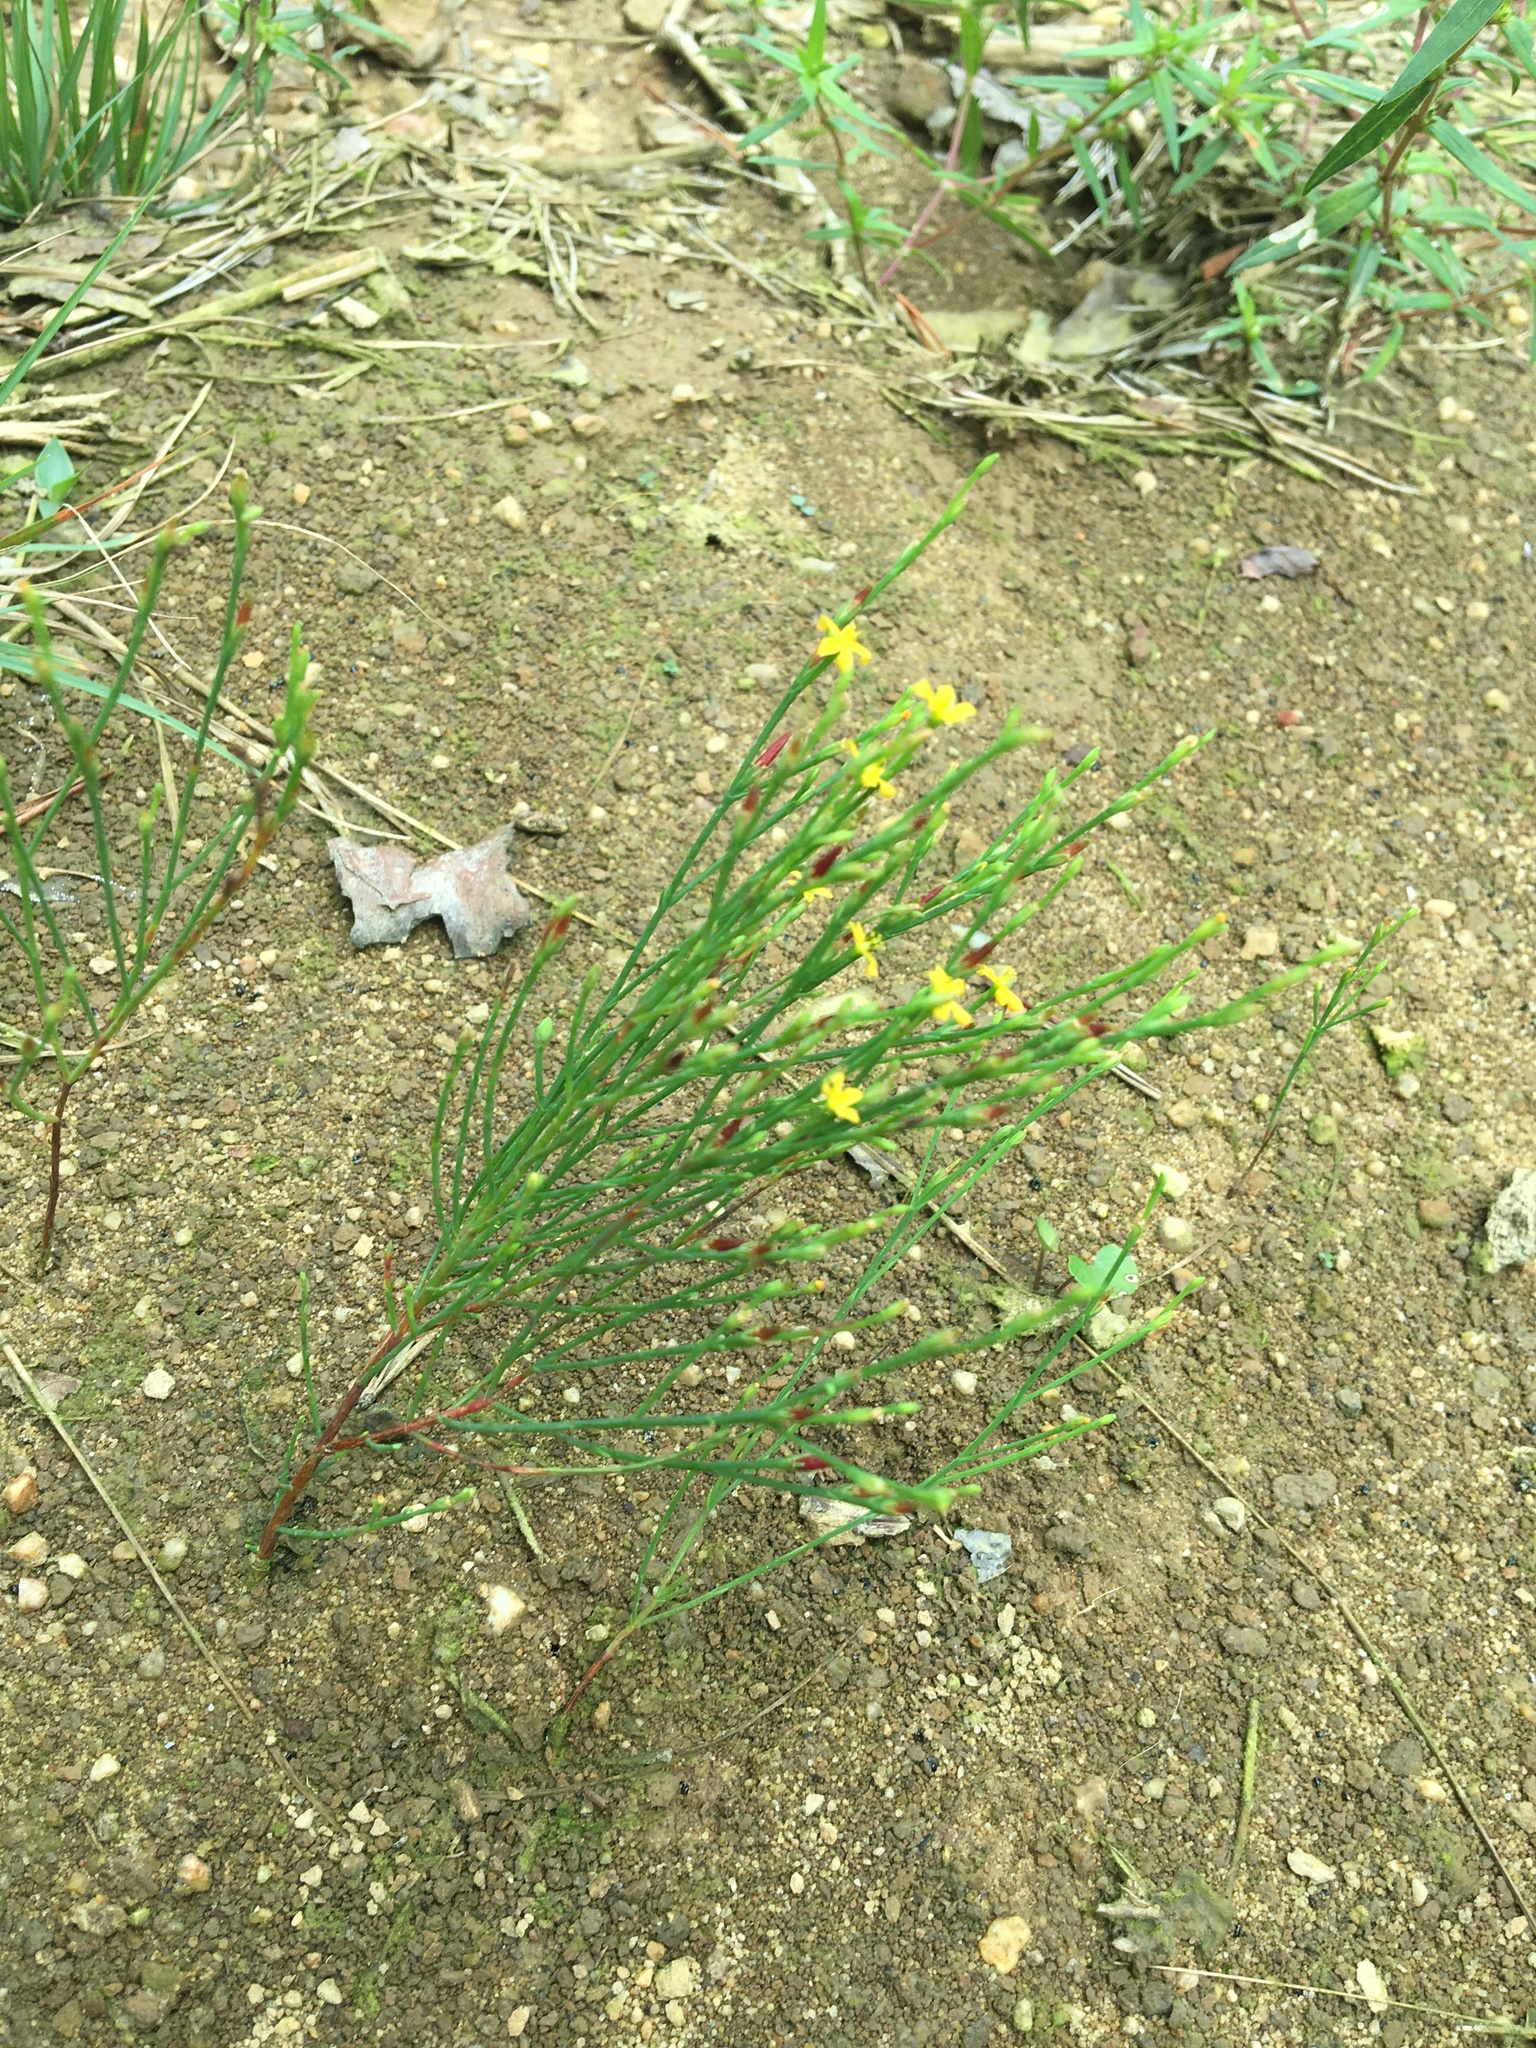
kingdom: Plantae
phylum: Tracheophyta
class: Magnoliopsida
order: Malpighiales
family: Hypericaceae
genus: Hypericum
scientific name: Hypericum gentianoides
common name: Gentian-leaved st. john's-wort
